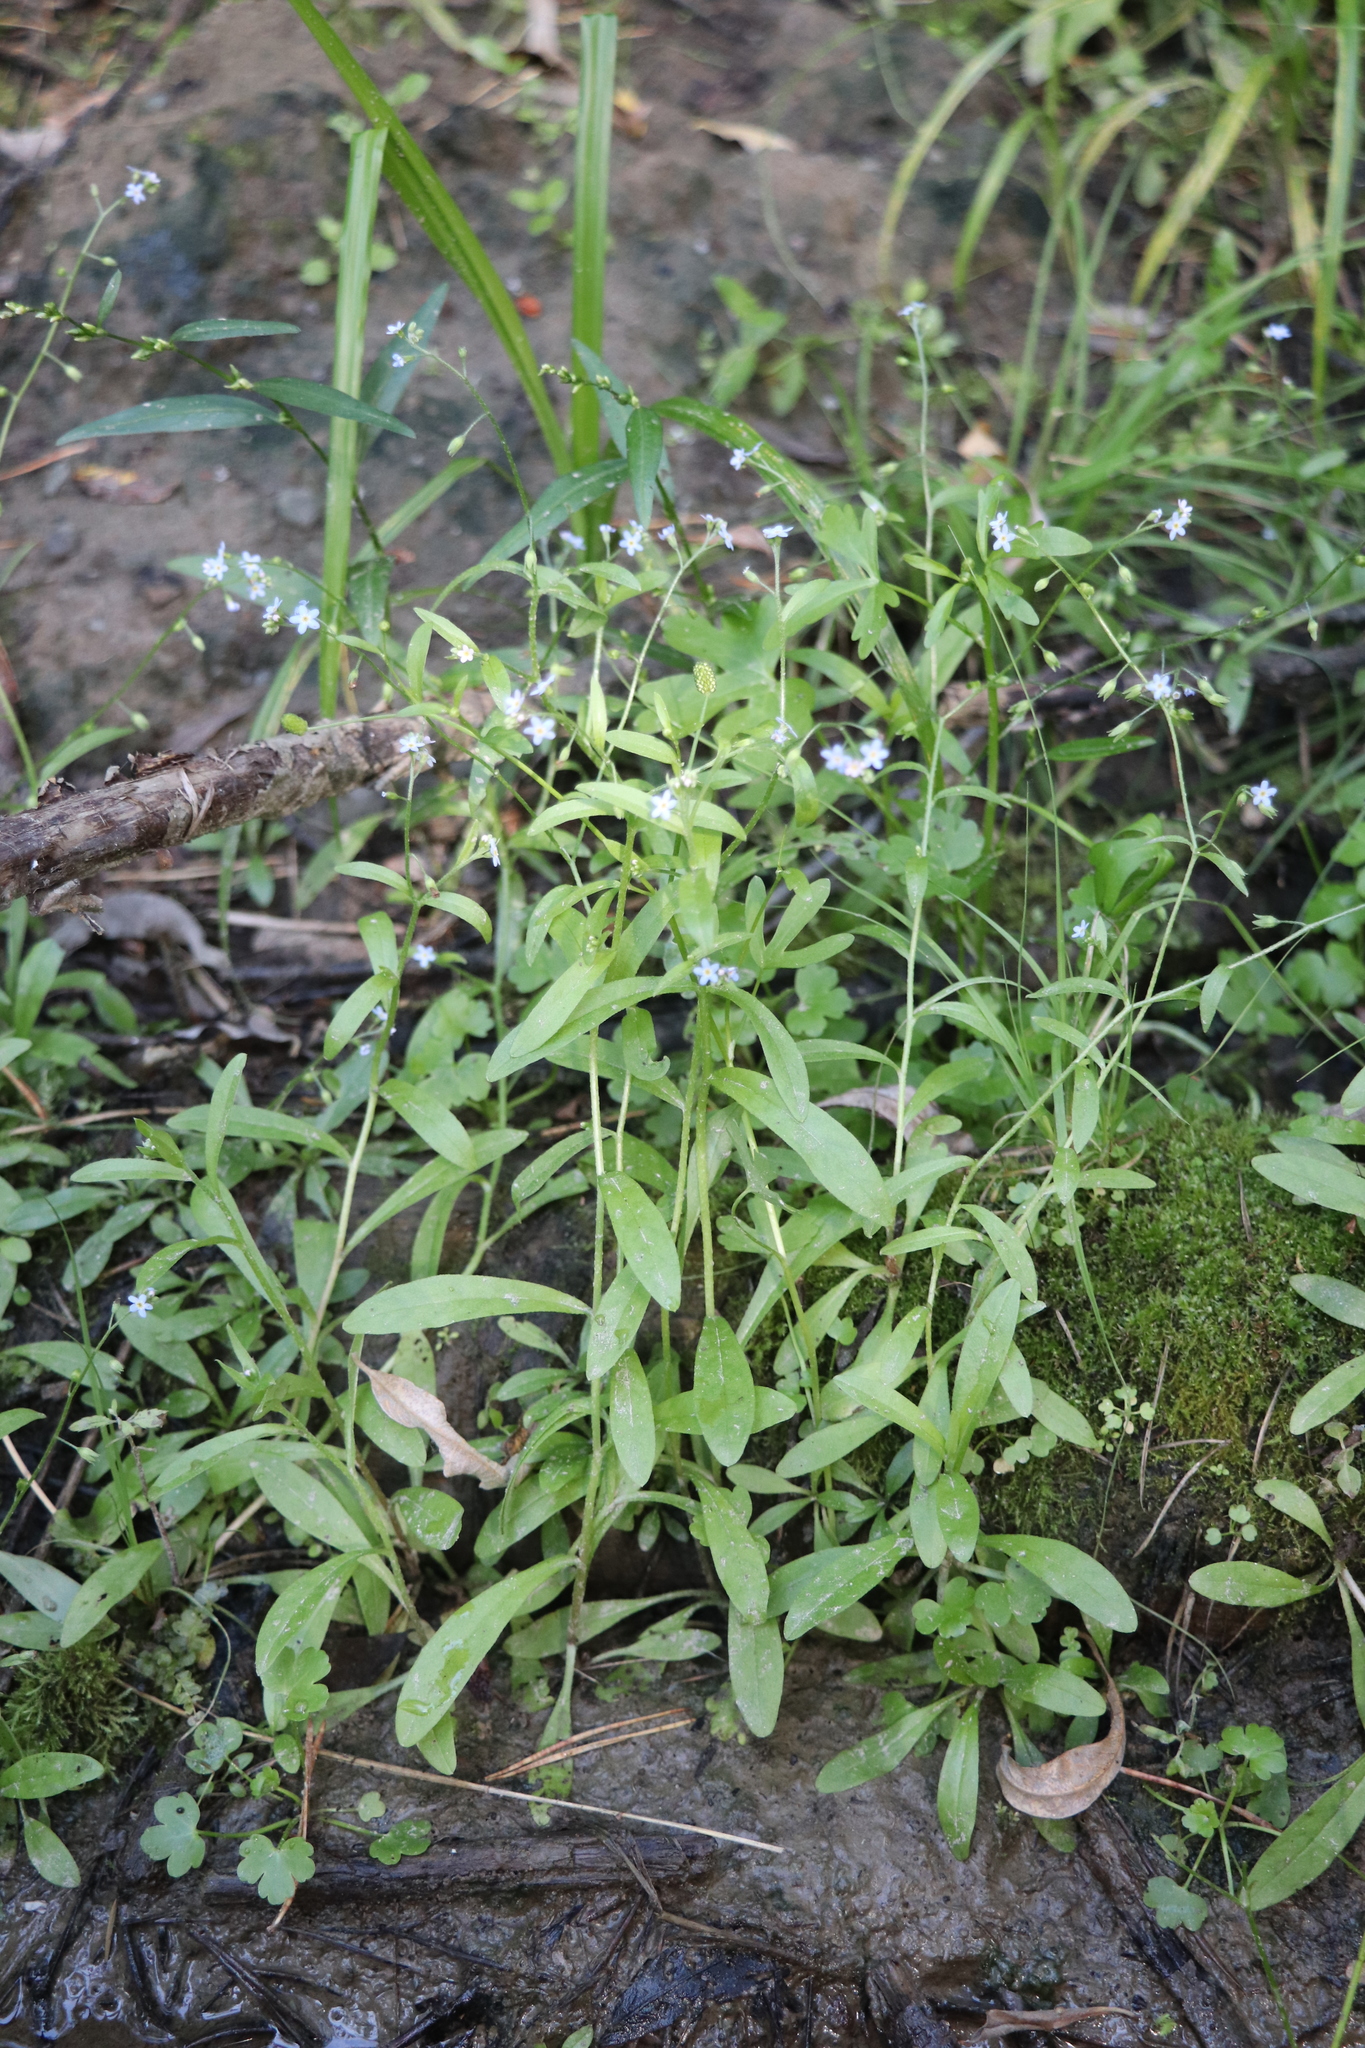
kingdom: Plantae
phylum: Tracheophyta
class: Magnoliopsida
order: Boraginales
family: Boraginaceae
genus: Myosotis
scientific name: Myosotis scorpioides
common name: Water forget-me-not
